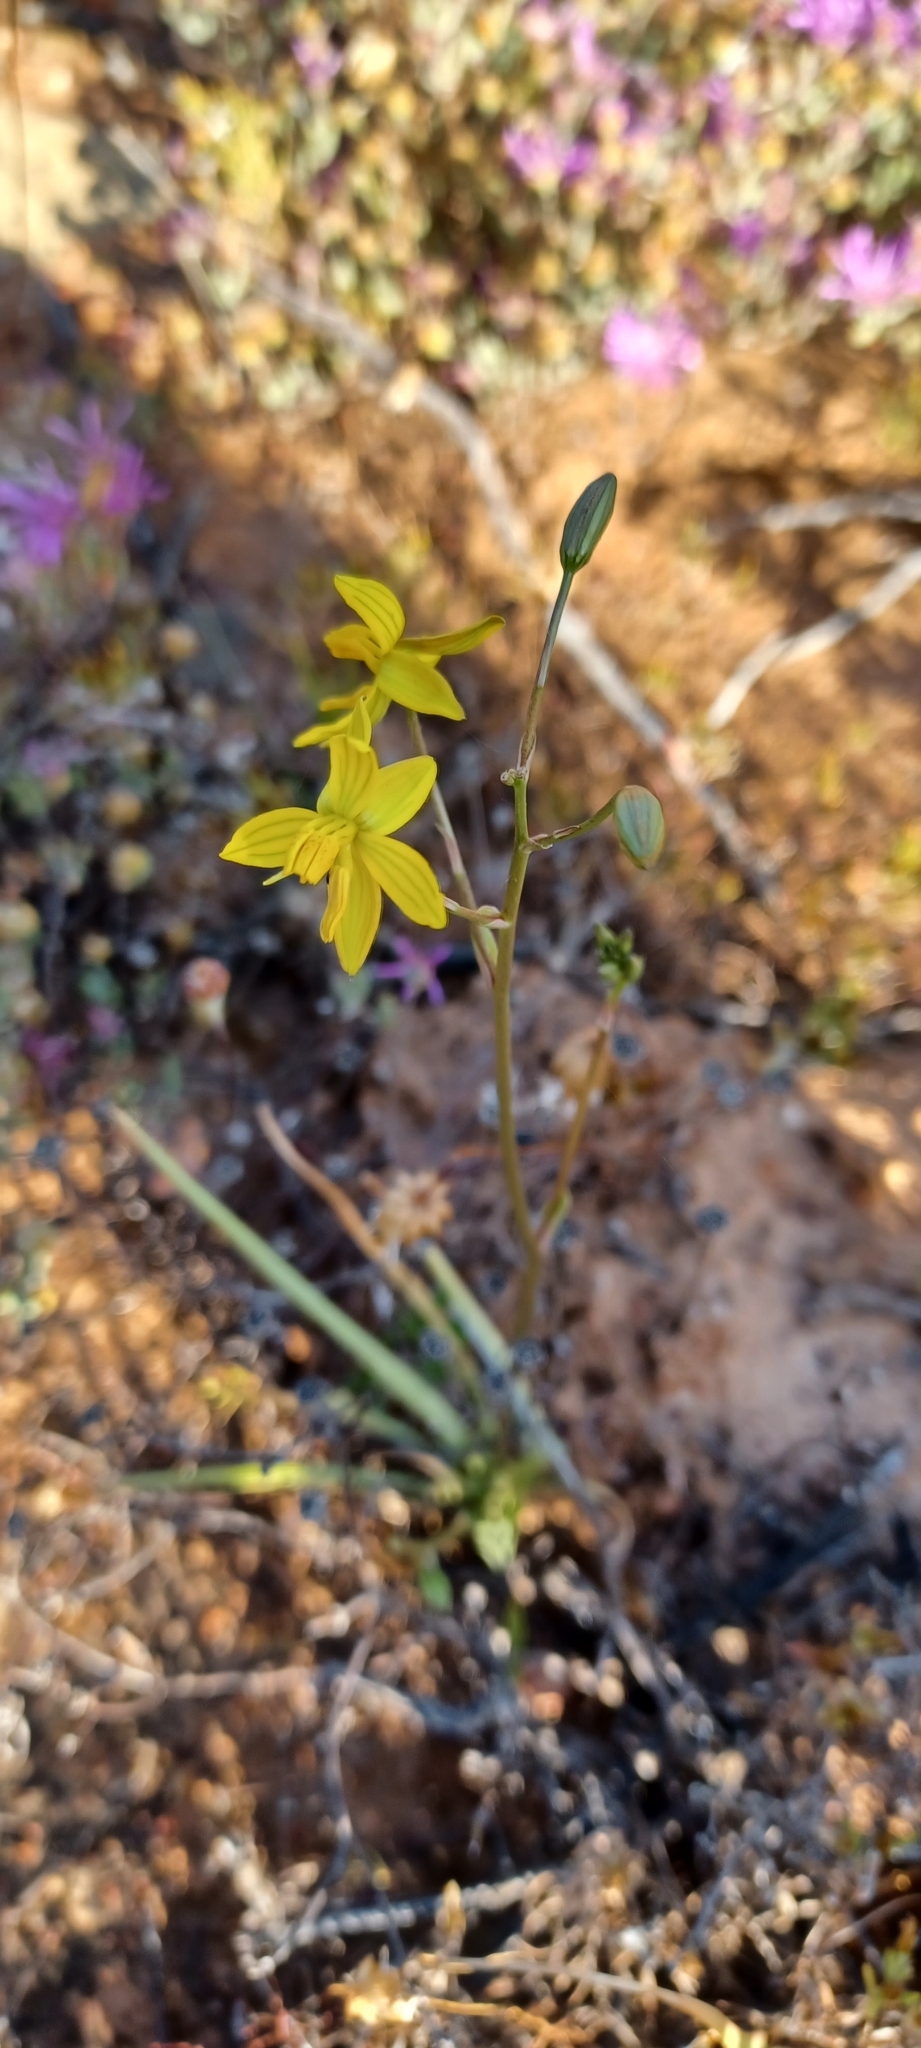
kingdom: Plantae
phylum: Tracheophyta
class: Liliopsida
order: Asparagales
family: Tecophilaeaceae
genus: Cyanella
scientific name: Cyanella lutea
